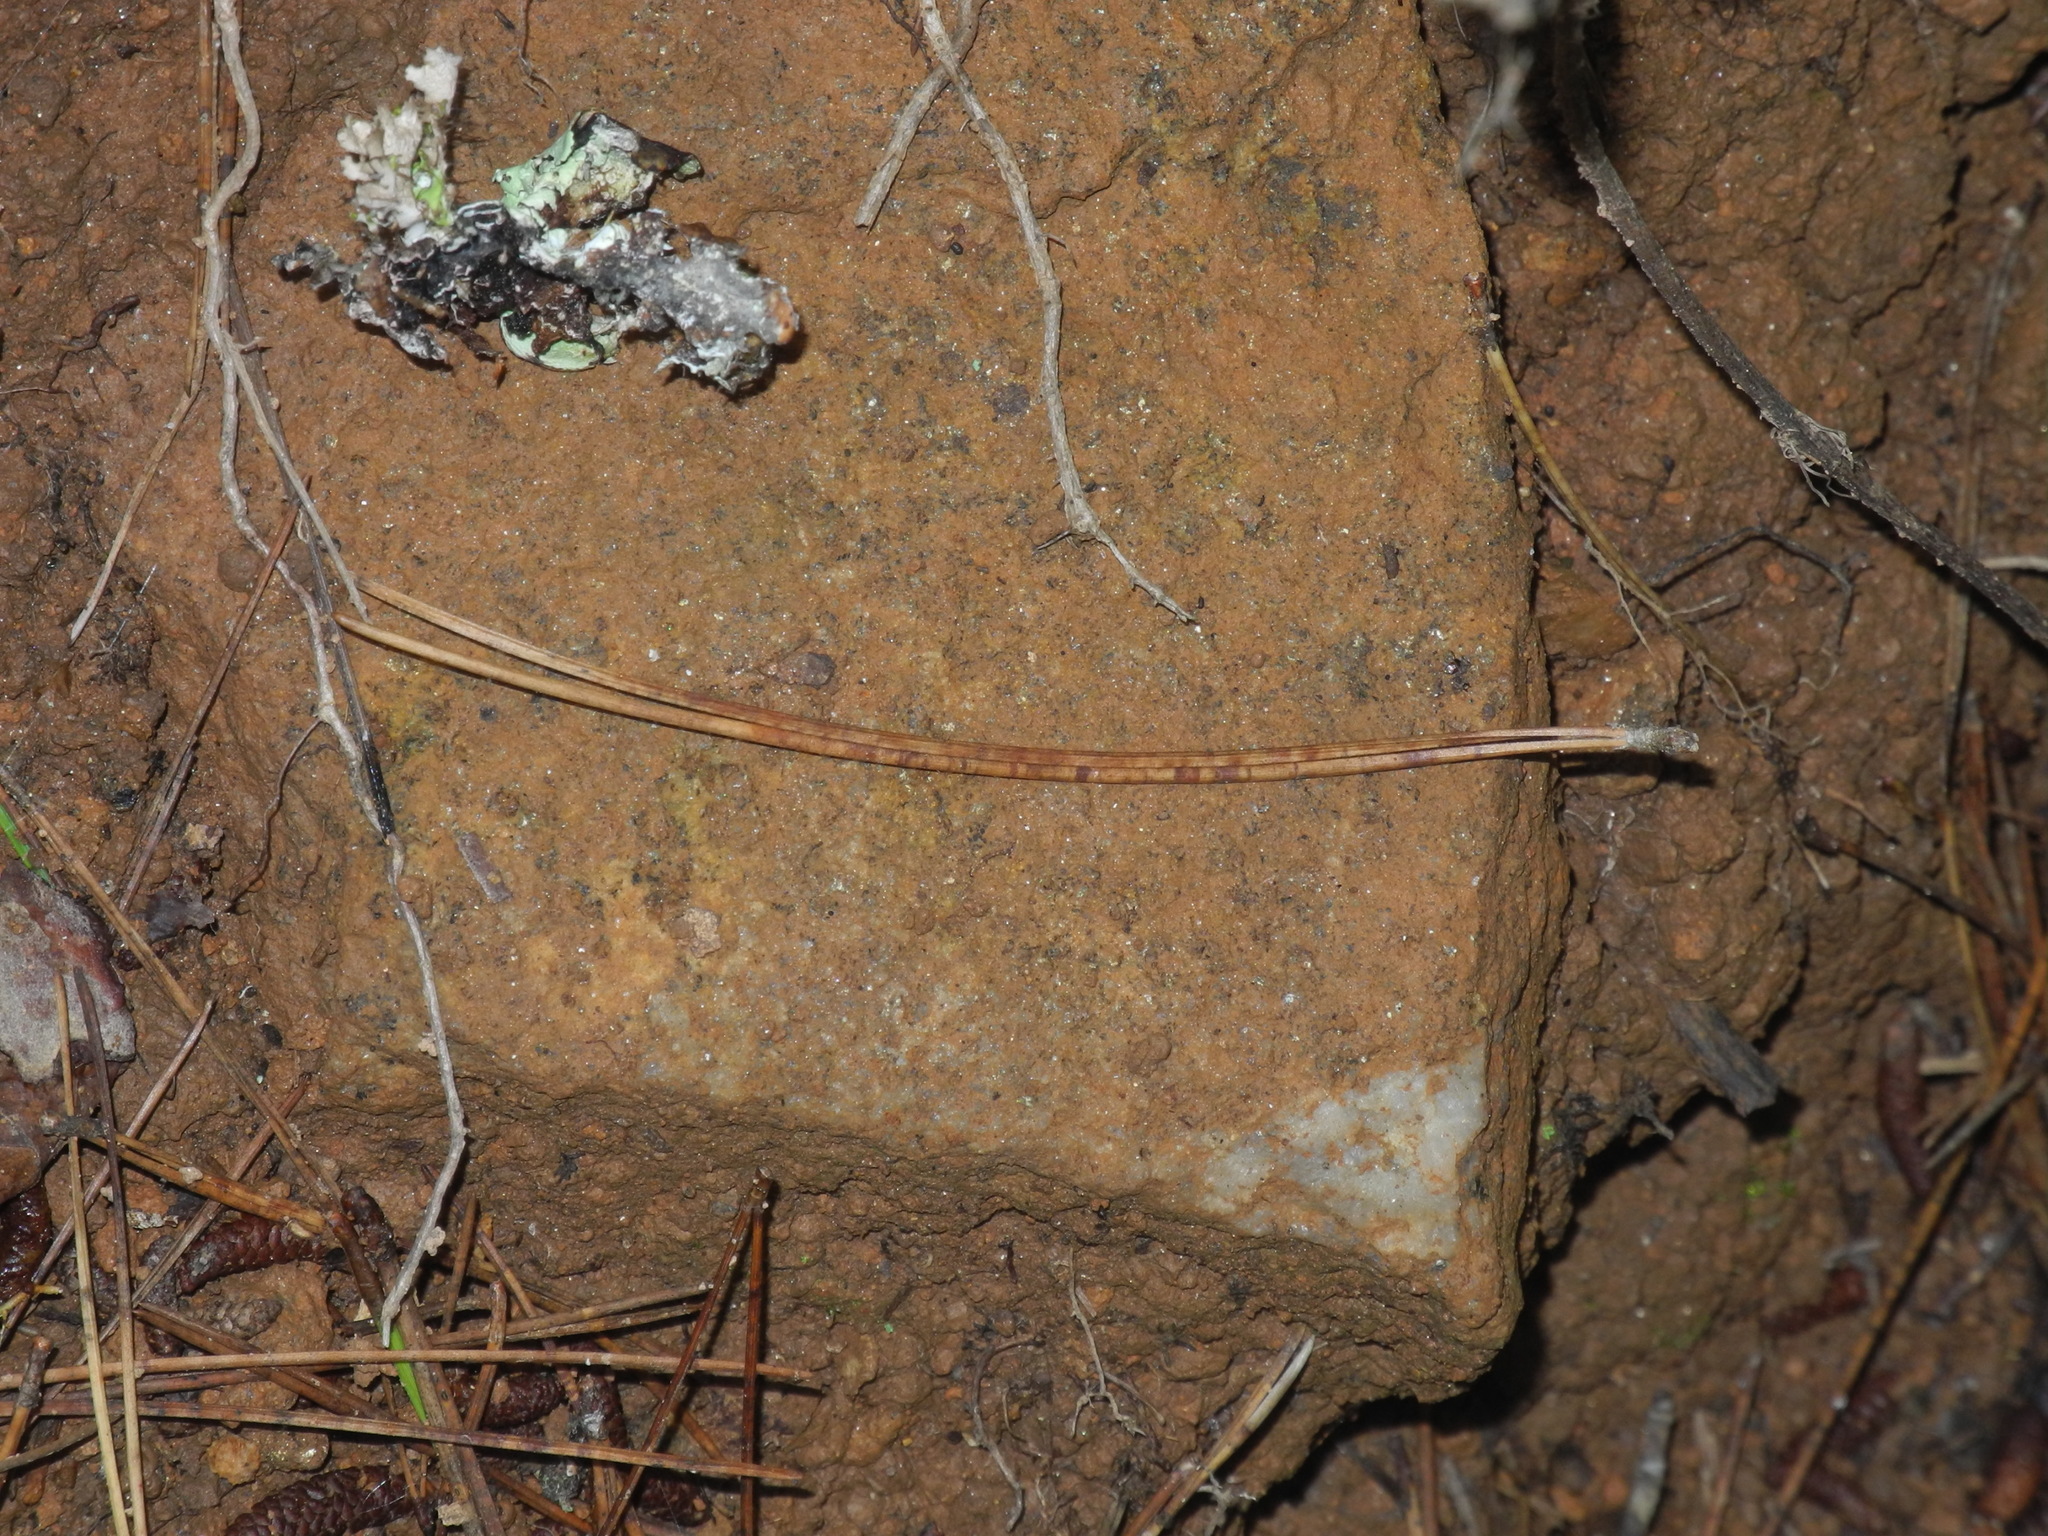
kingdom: Plantae
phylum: Tracheophyta
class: Pinopsida
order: Pinales
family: Pinaceae
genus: Pinus
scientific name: Pinus echinata
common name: Shortleaf pine
